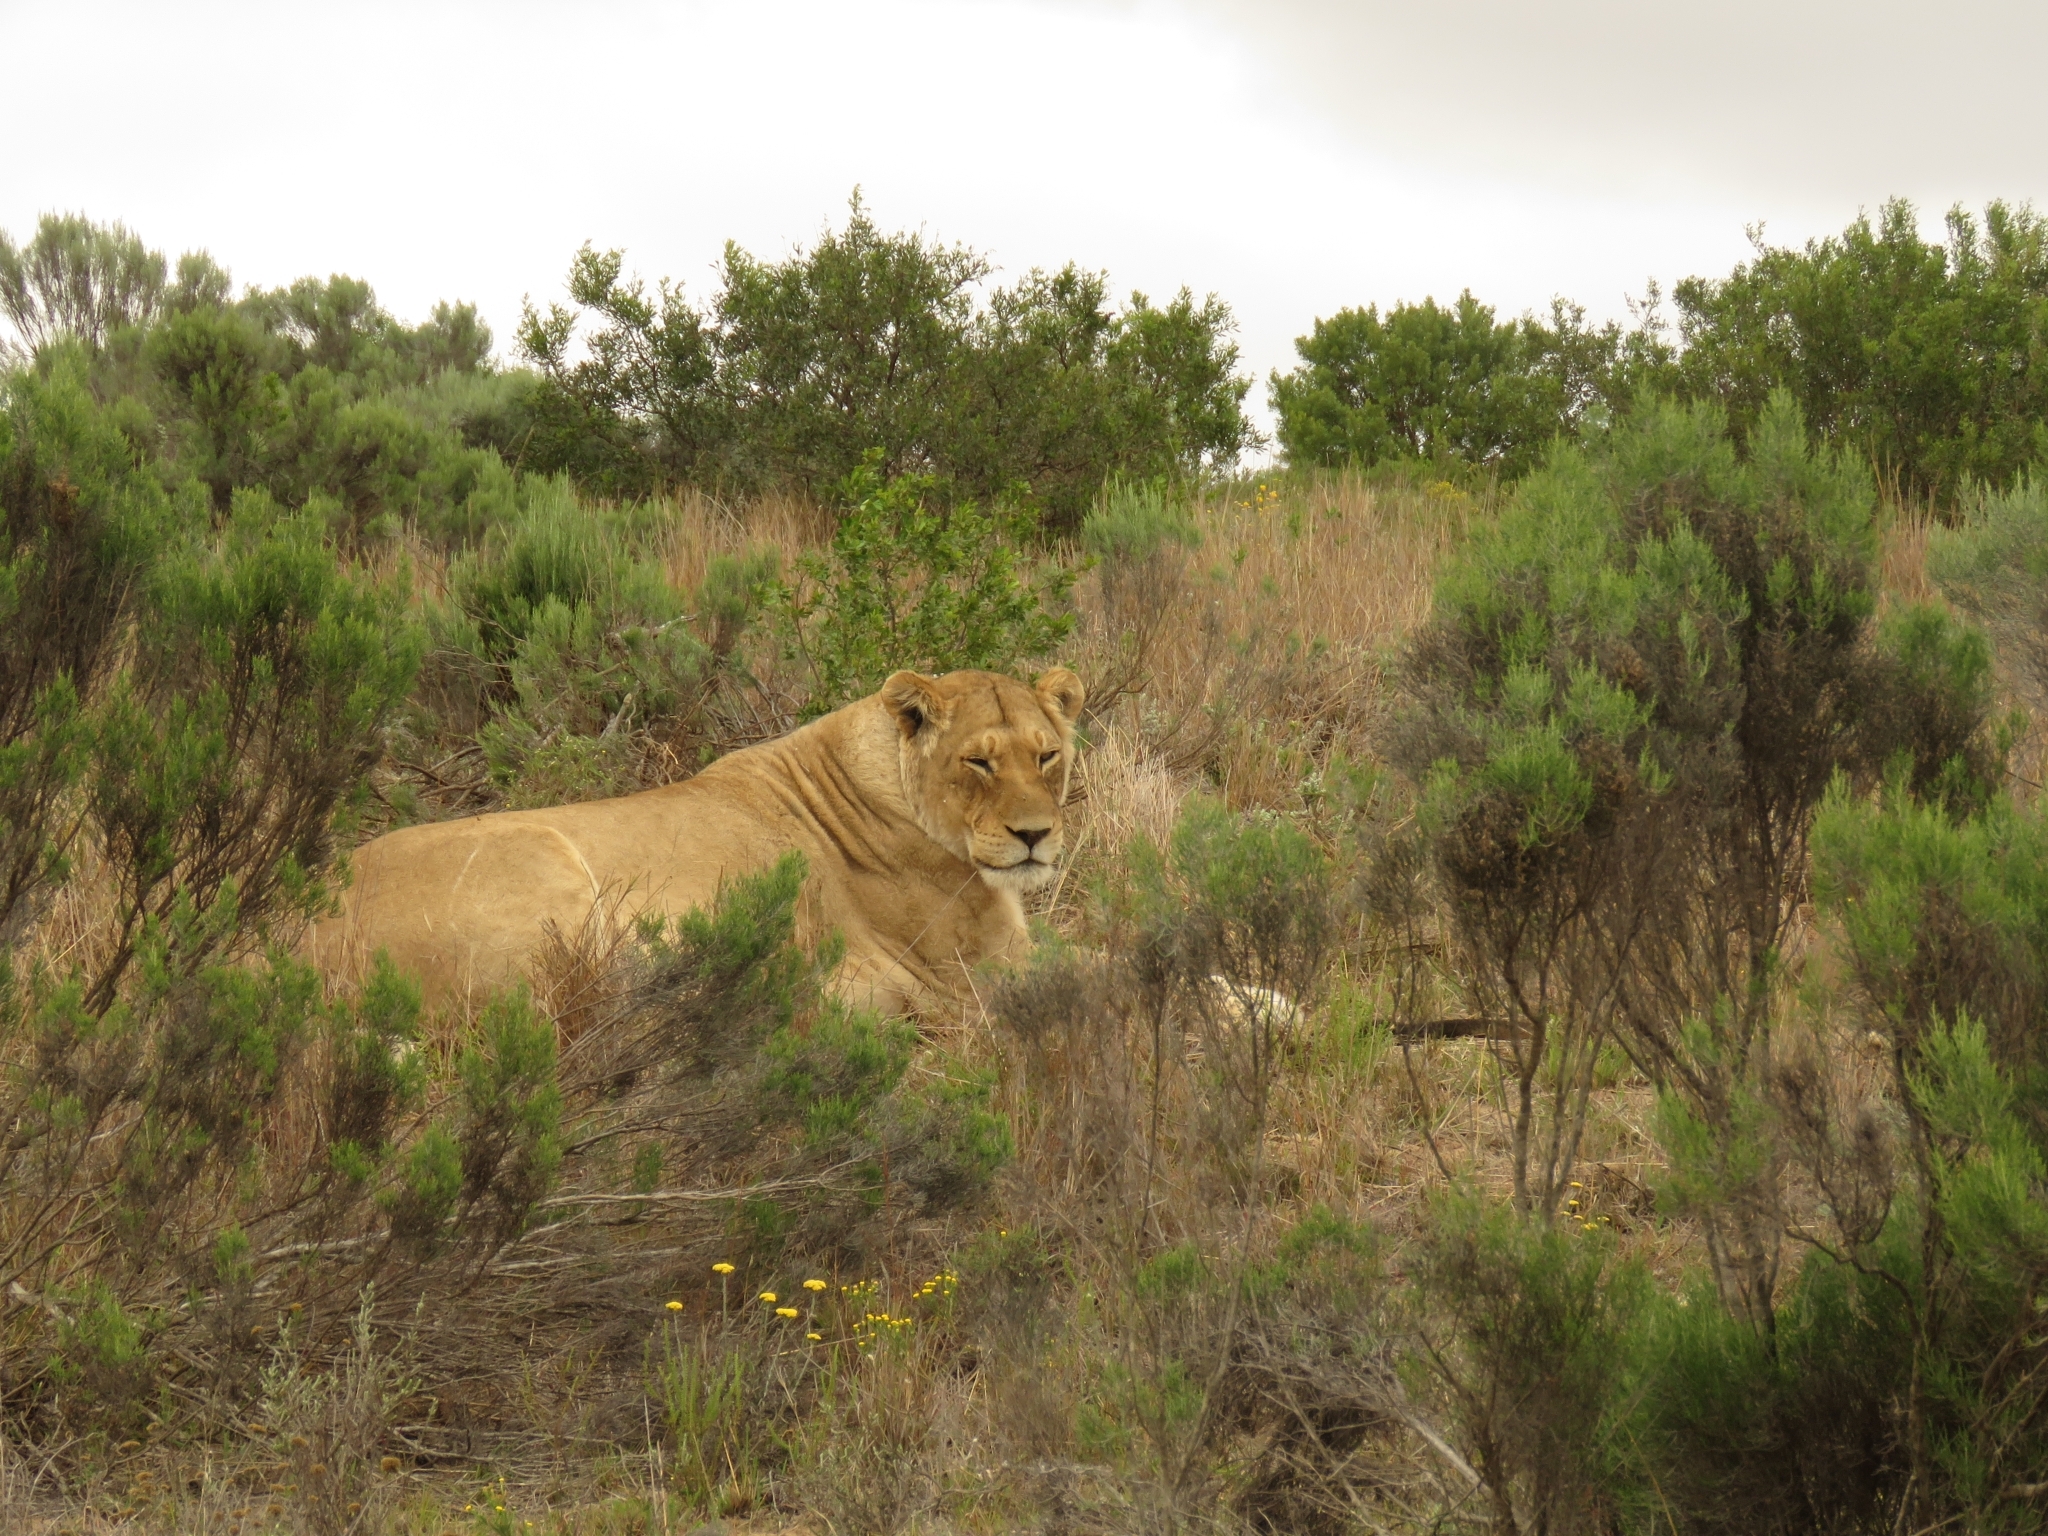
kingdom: Animalia
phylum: Chordata
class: Mammalia
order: Carnivora
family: Felidae
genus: Panthera
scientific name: Panthera leo
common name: Lion
